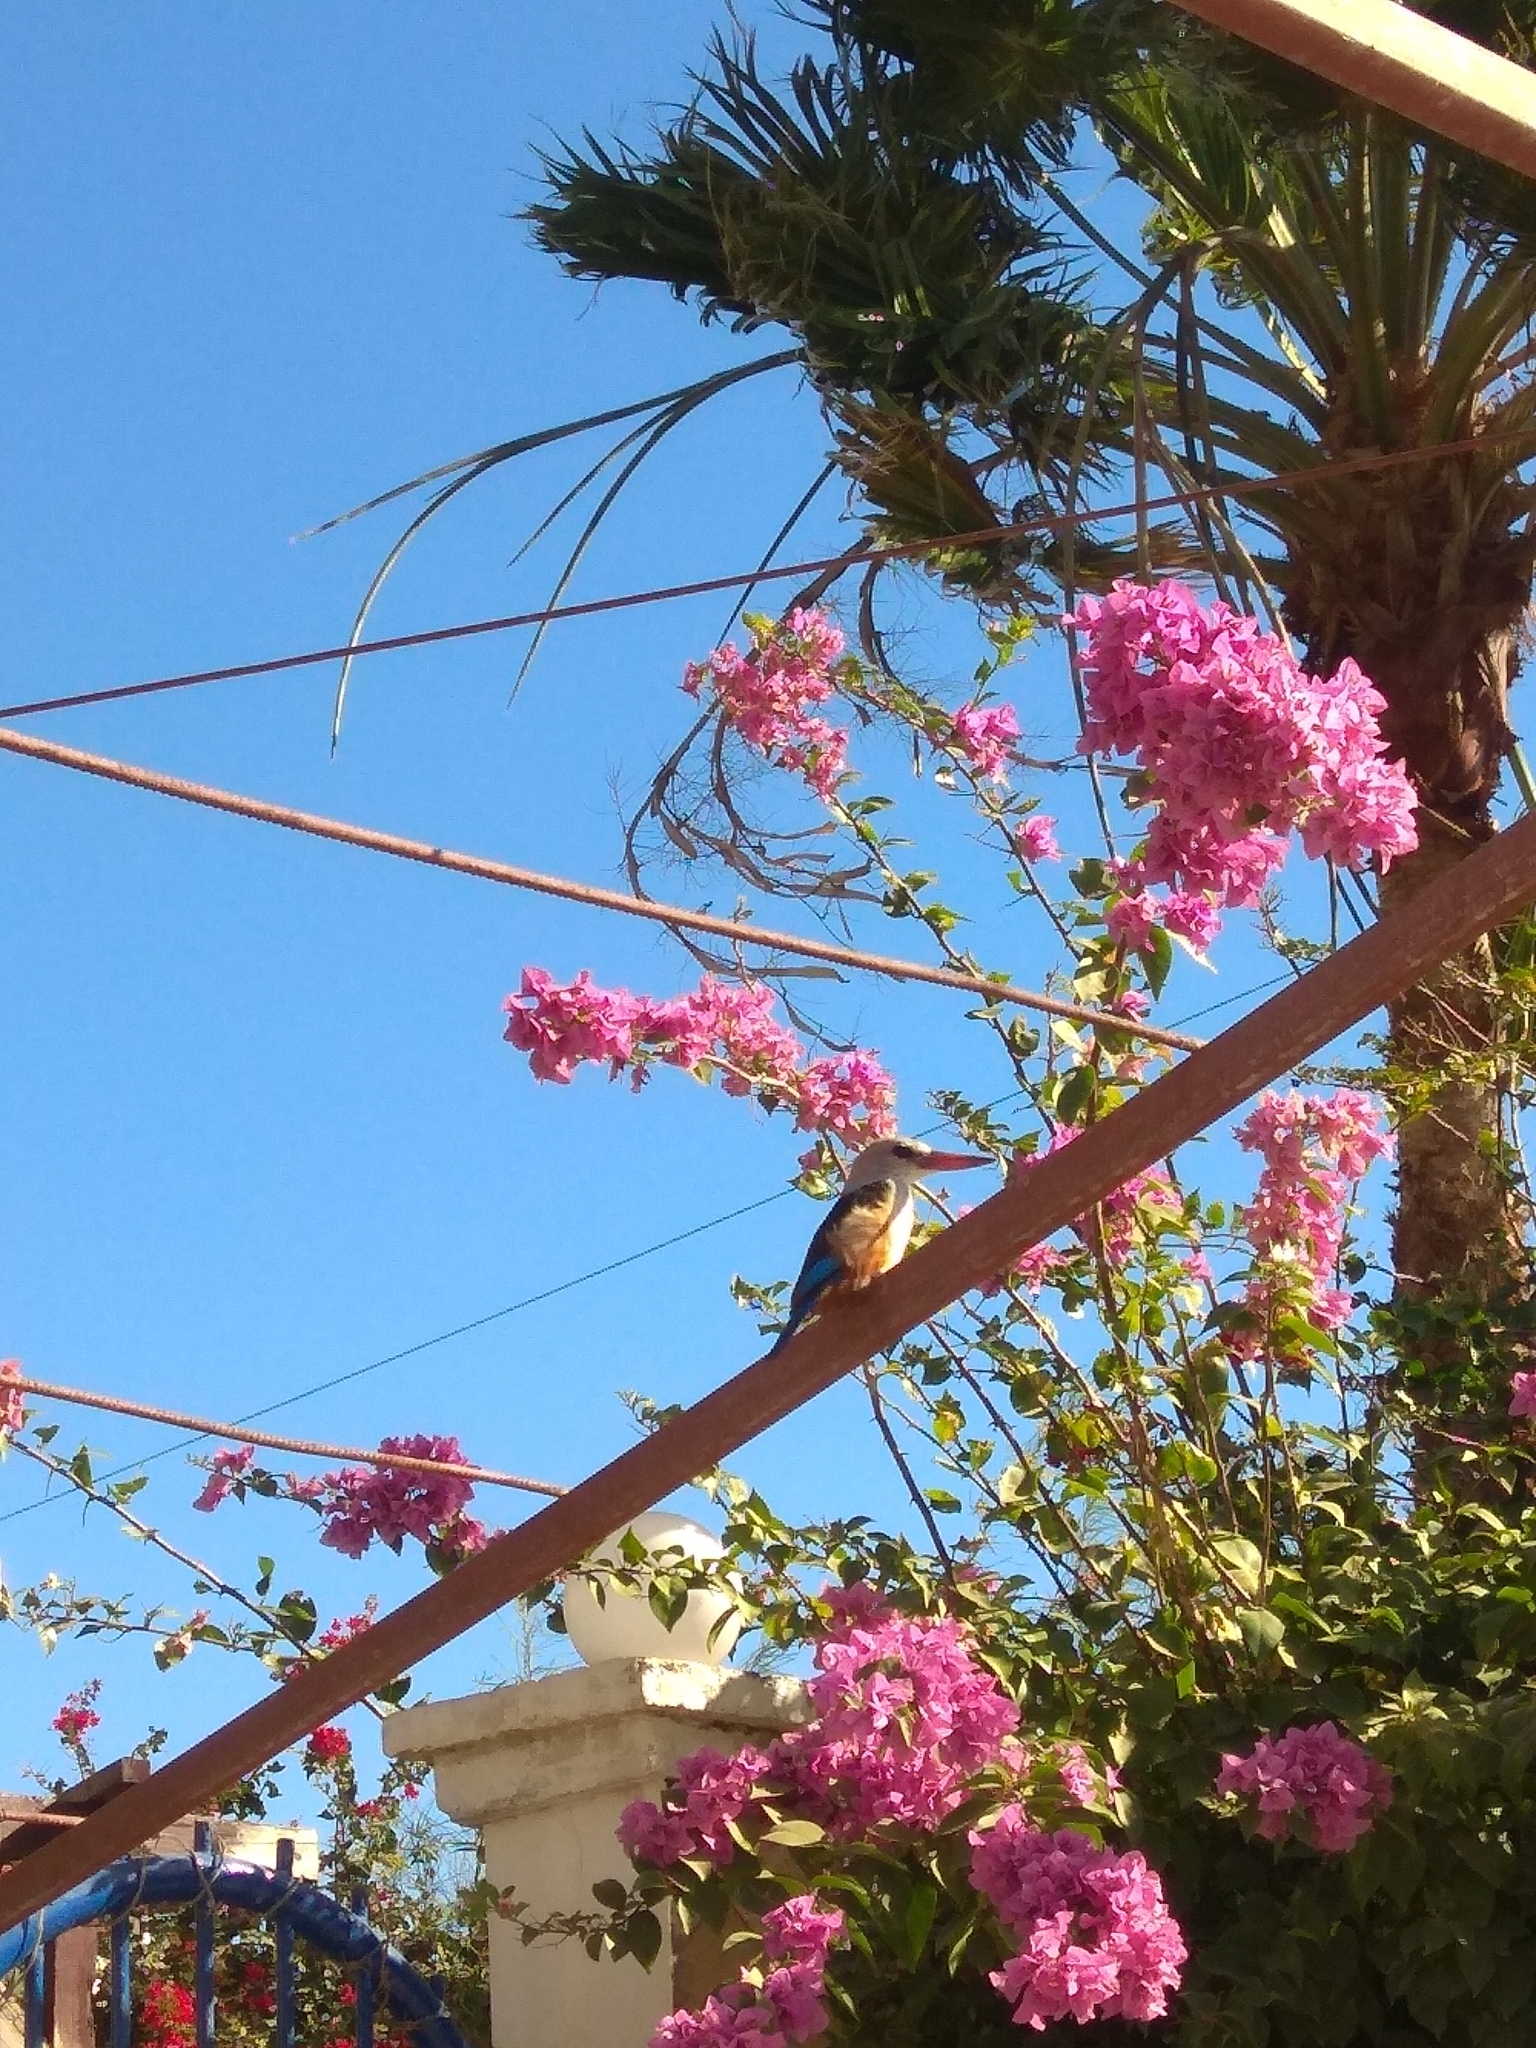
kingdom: Animalia
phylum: Chordata
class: Aves
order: Coraciiformes
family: Alcedinidae
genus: Halcyon
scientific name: Halcyon leucocephala
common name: Grey-headed kingfisher
